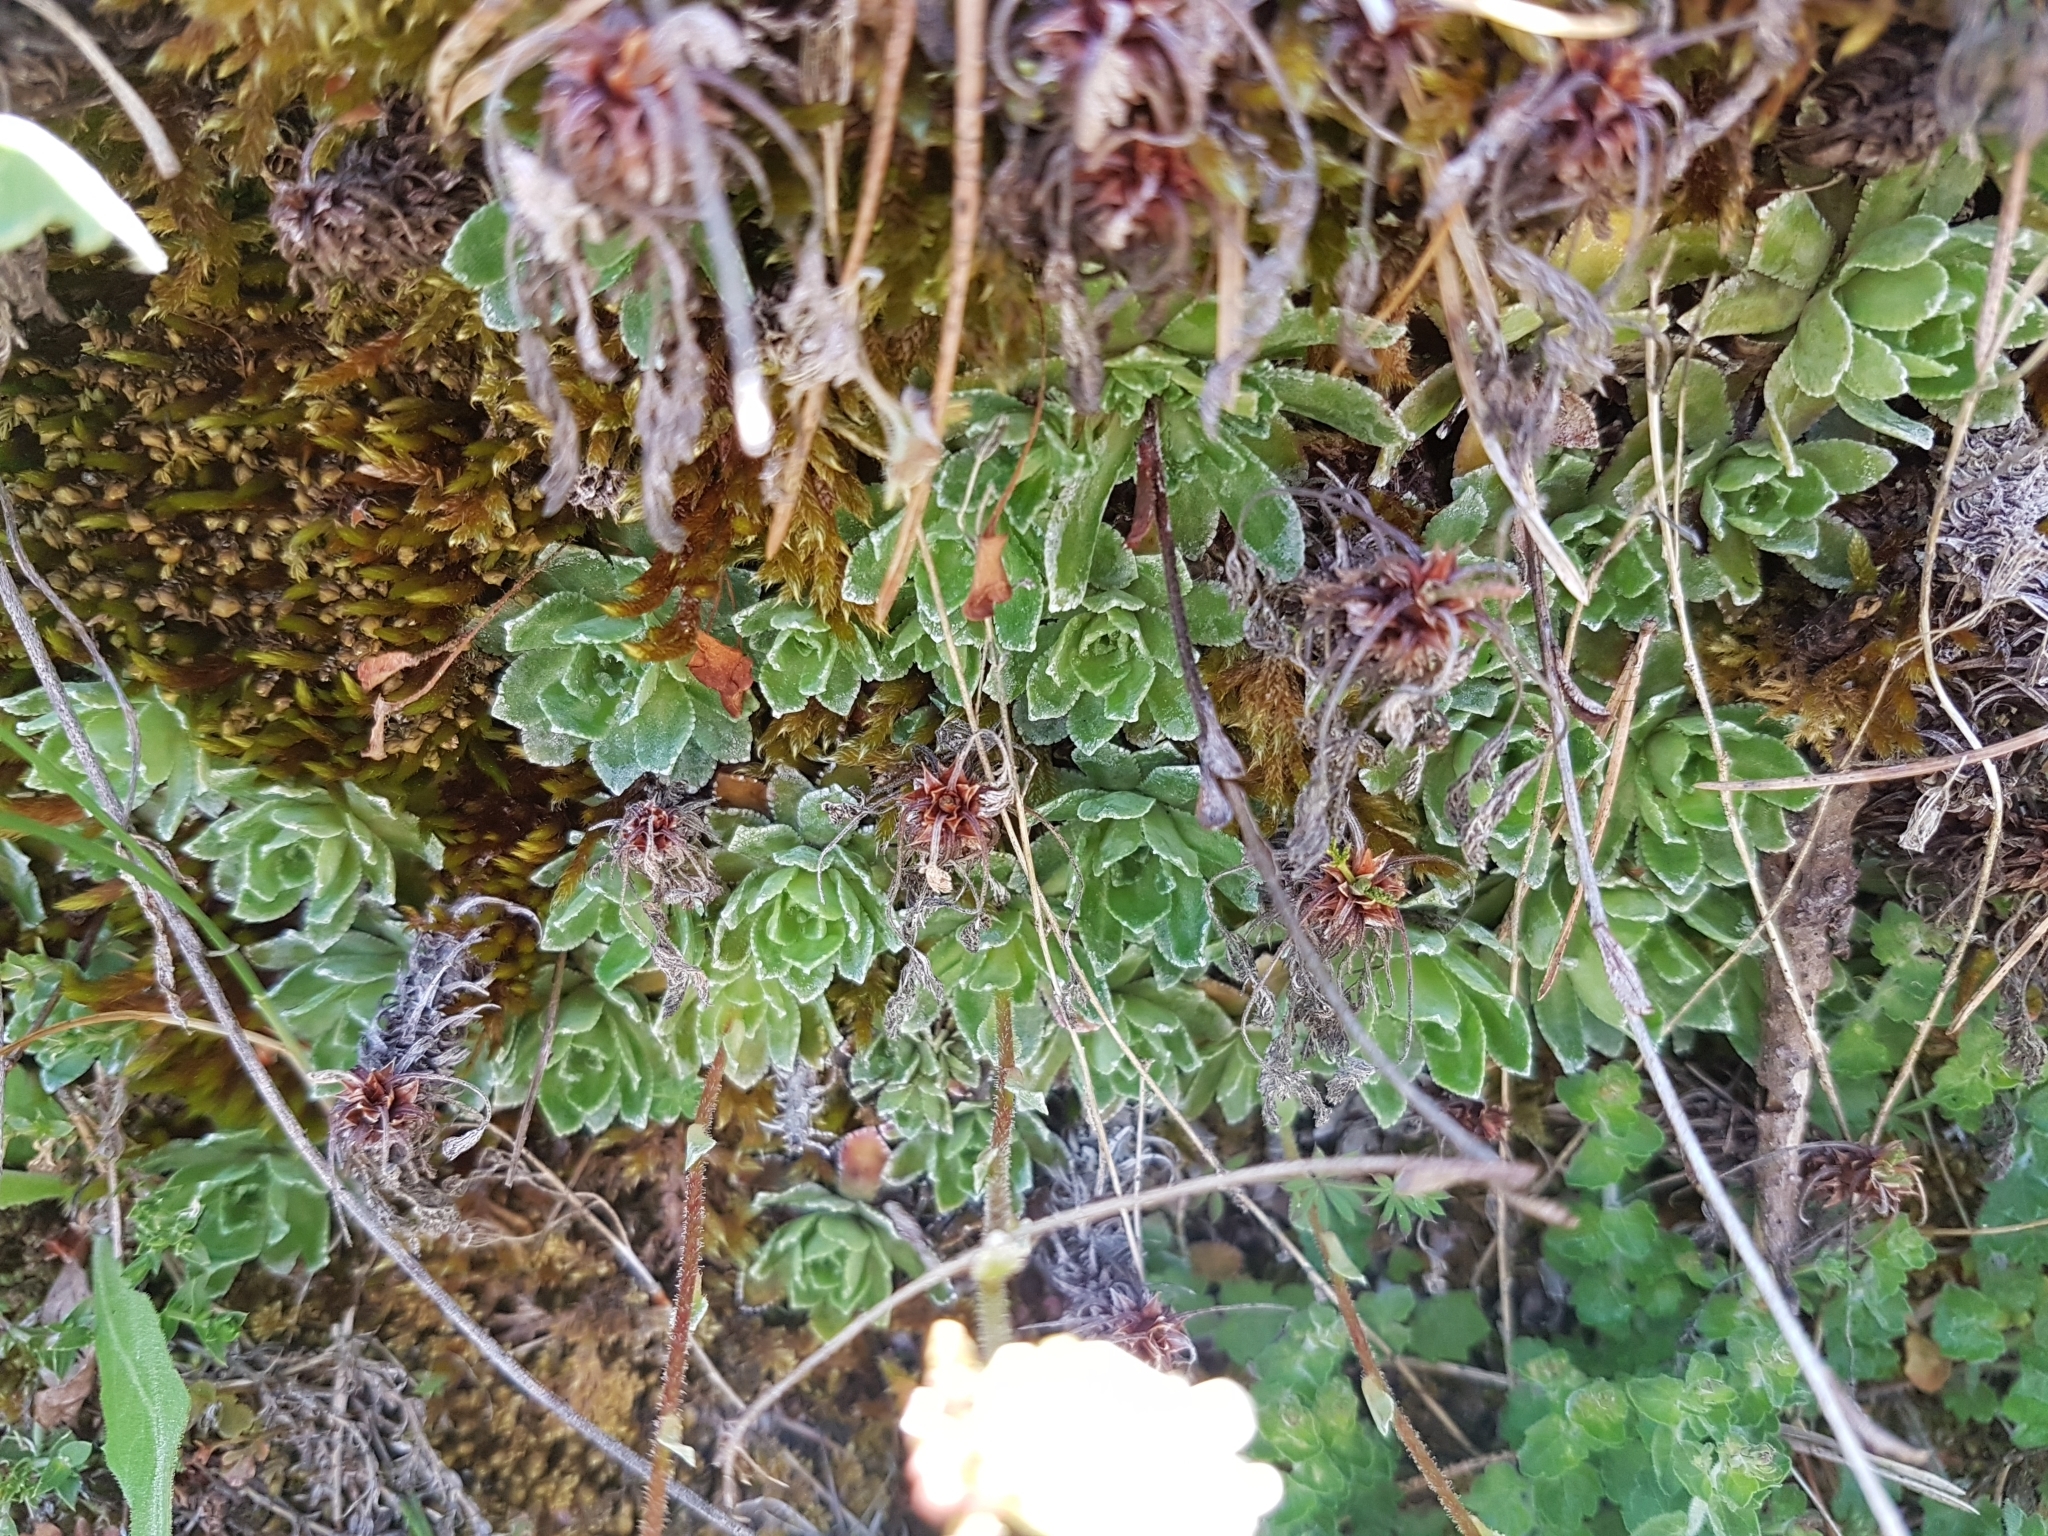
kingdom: Plantae
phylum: Tracheophyta
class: Magnoliopsida
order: Saxifragales
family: Saxifragaceae
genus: Saxifraga
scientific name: Saxifraga paniculata
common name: Livelong saxifrage
